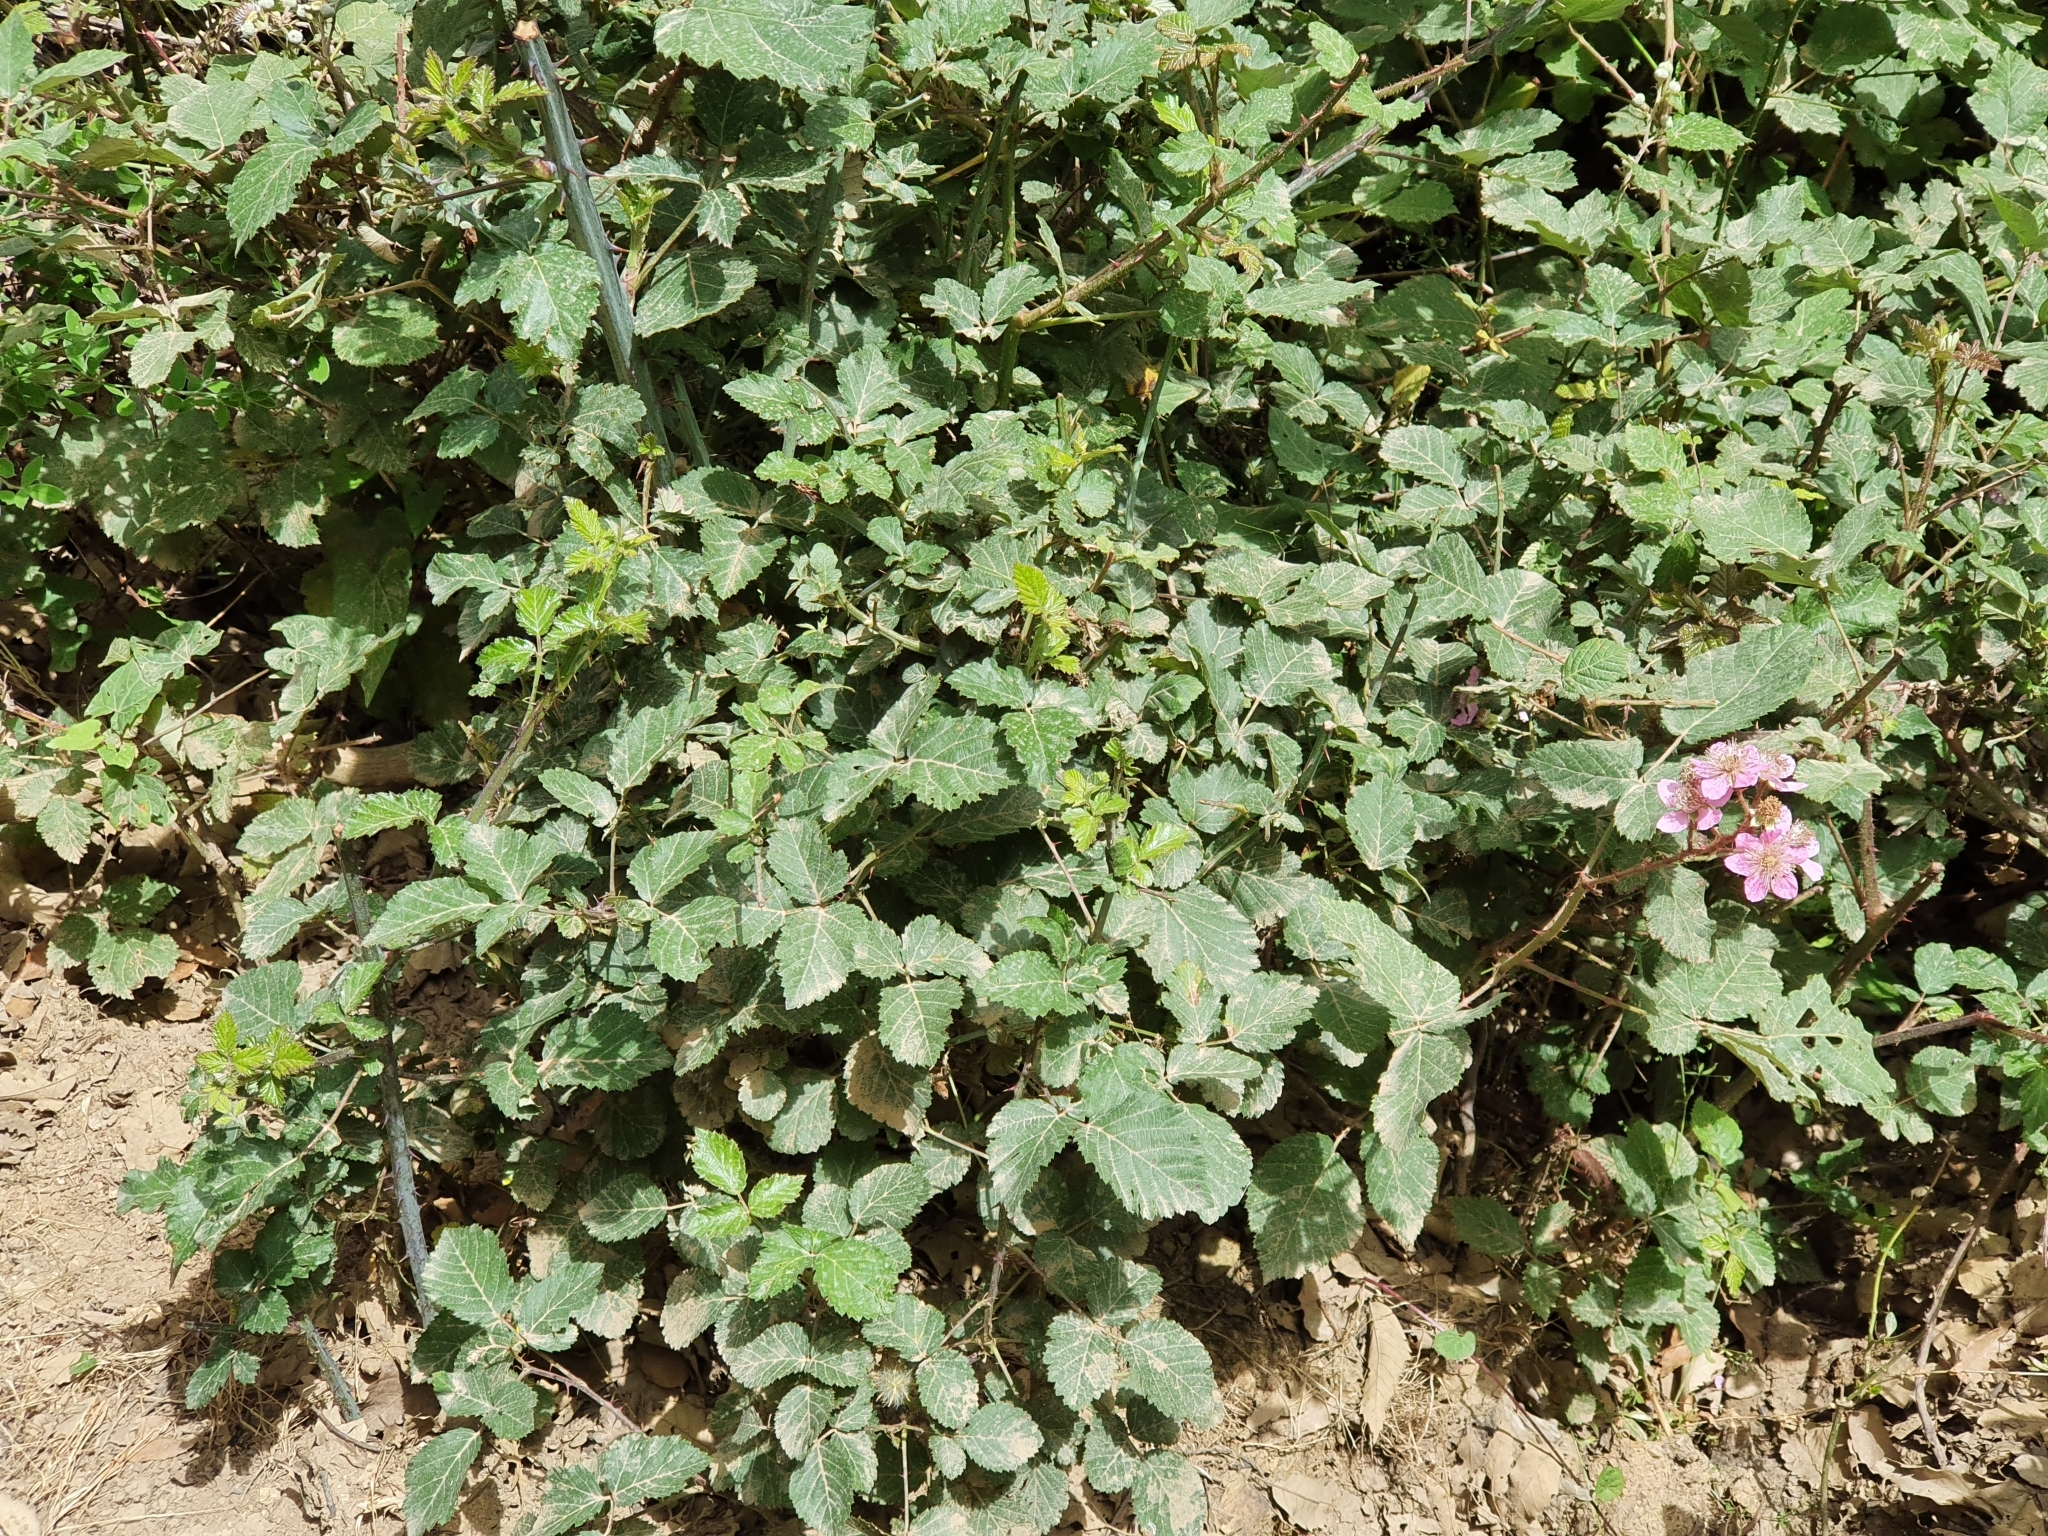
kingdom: Plantae
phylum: Tracheophyta
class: Magnoliopsida
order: Rosales
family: Rosaceae
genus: Rubus
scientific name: Rubus ulmifolius
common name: Elmleaf blackberry
